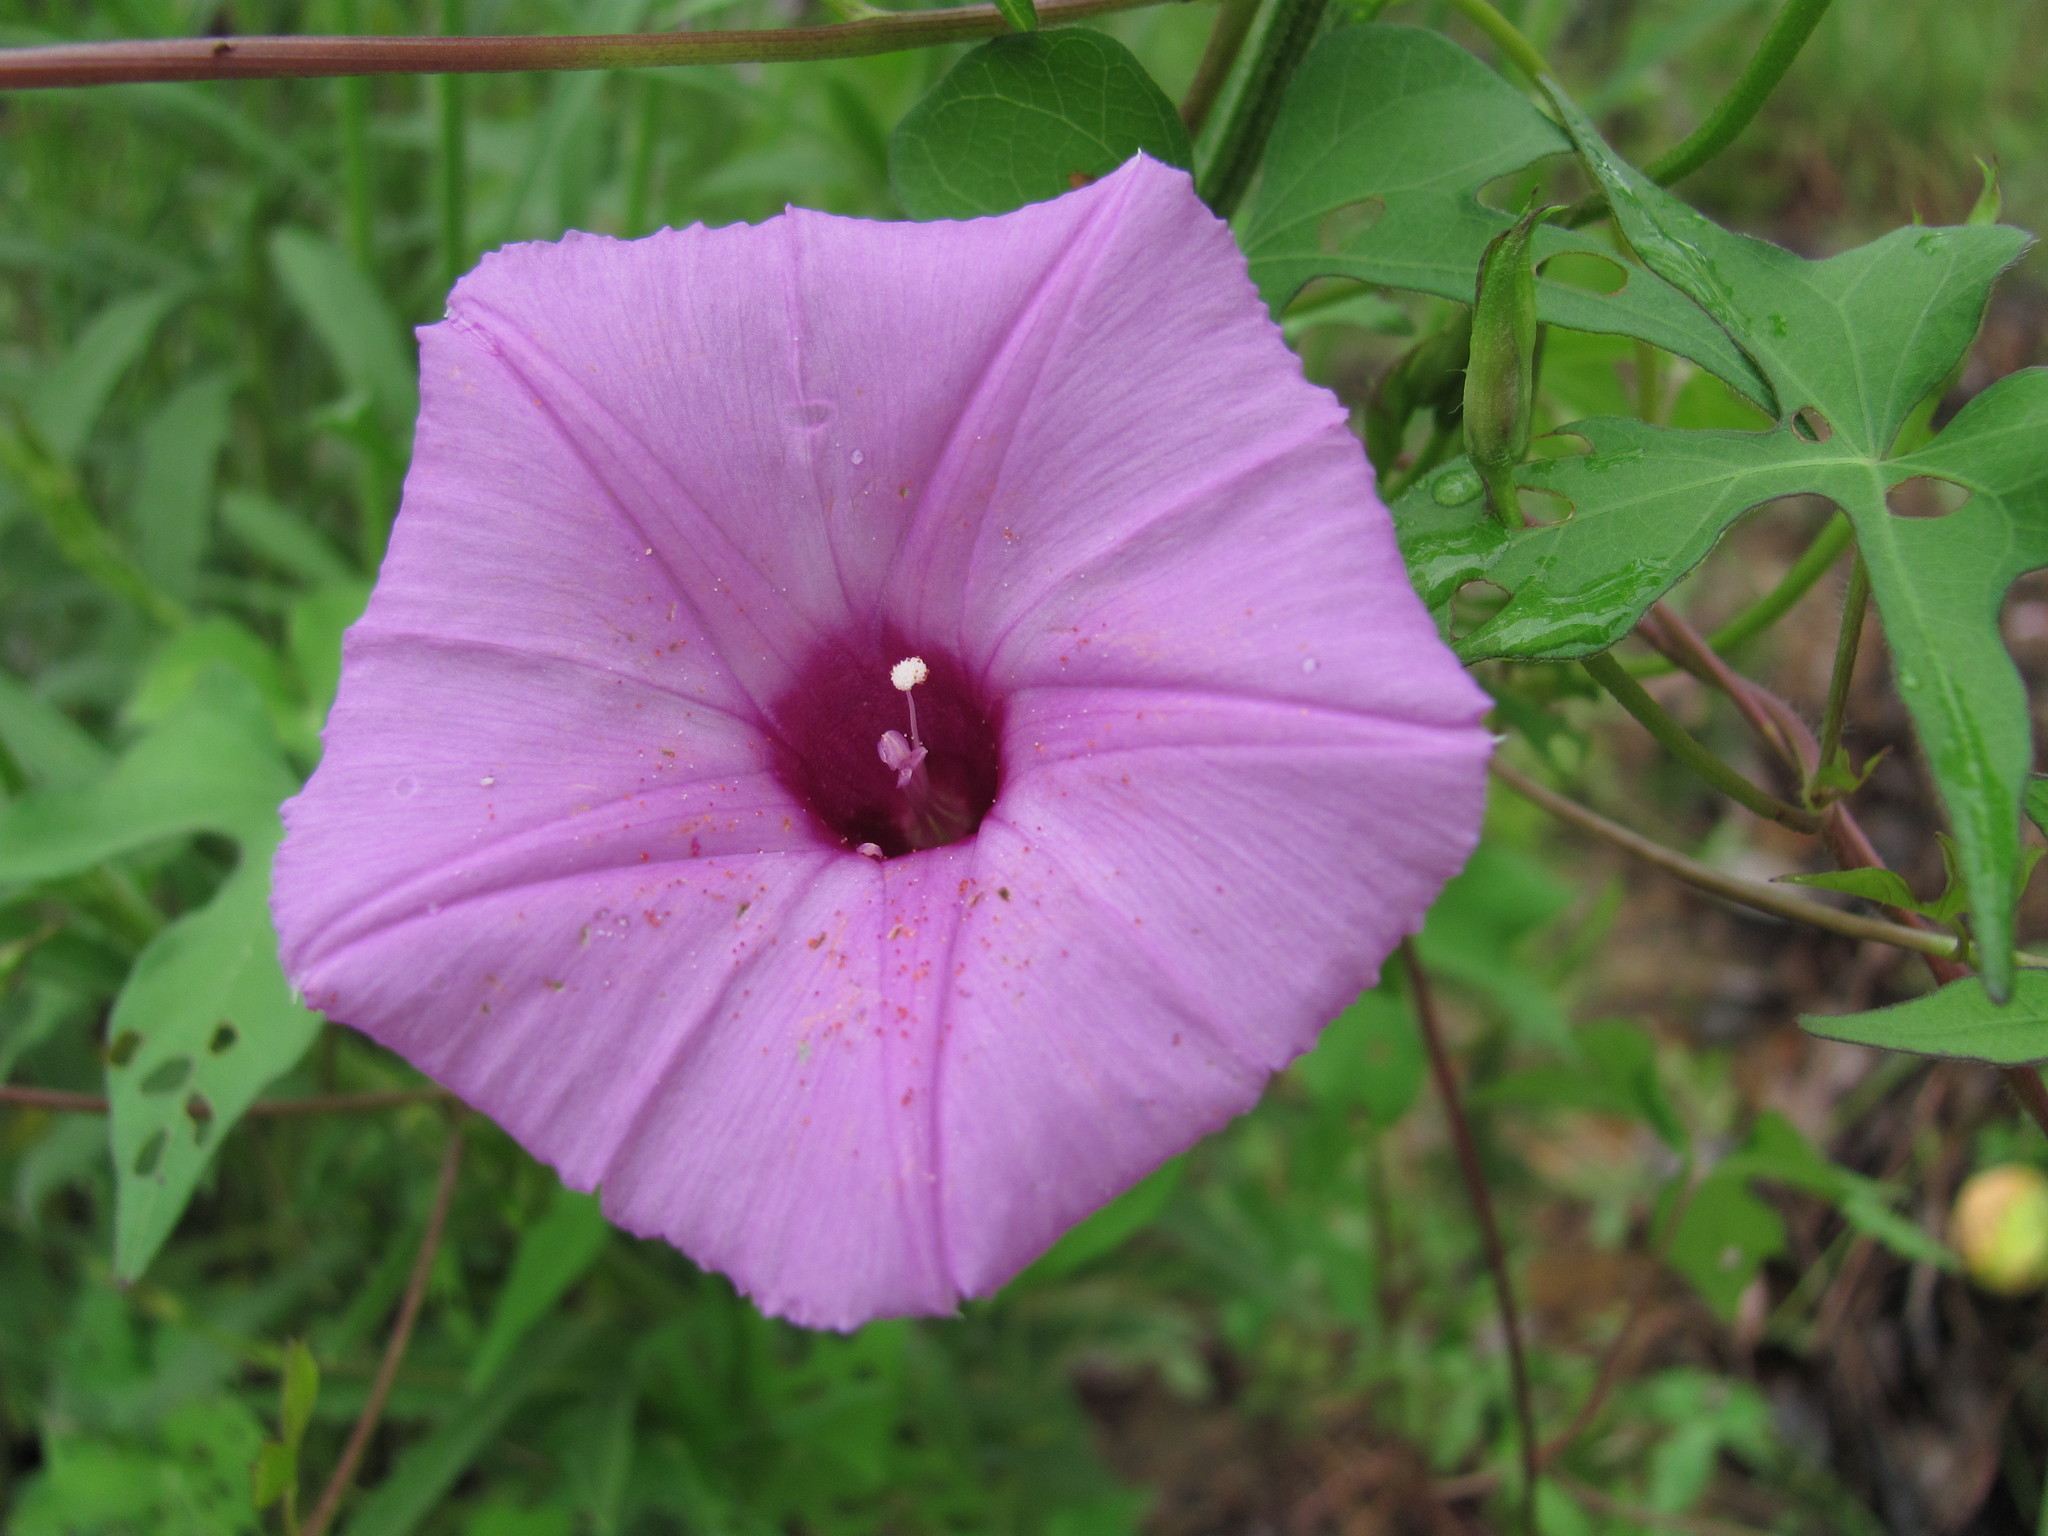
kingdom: Plantae
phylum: Tracheophyta
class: Magnoliopsida
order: Solanales
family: Convolvulaceae
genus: Ipomoea
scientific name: Ipomoea cordatotriloba
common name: Cotton morning glory
